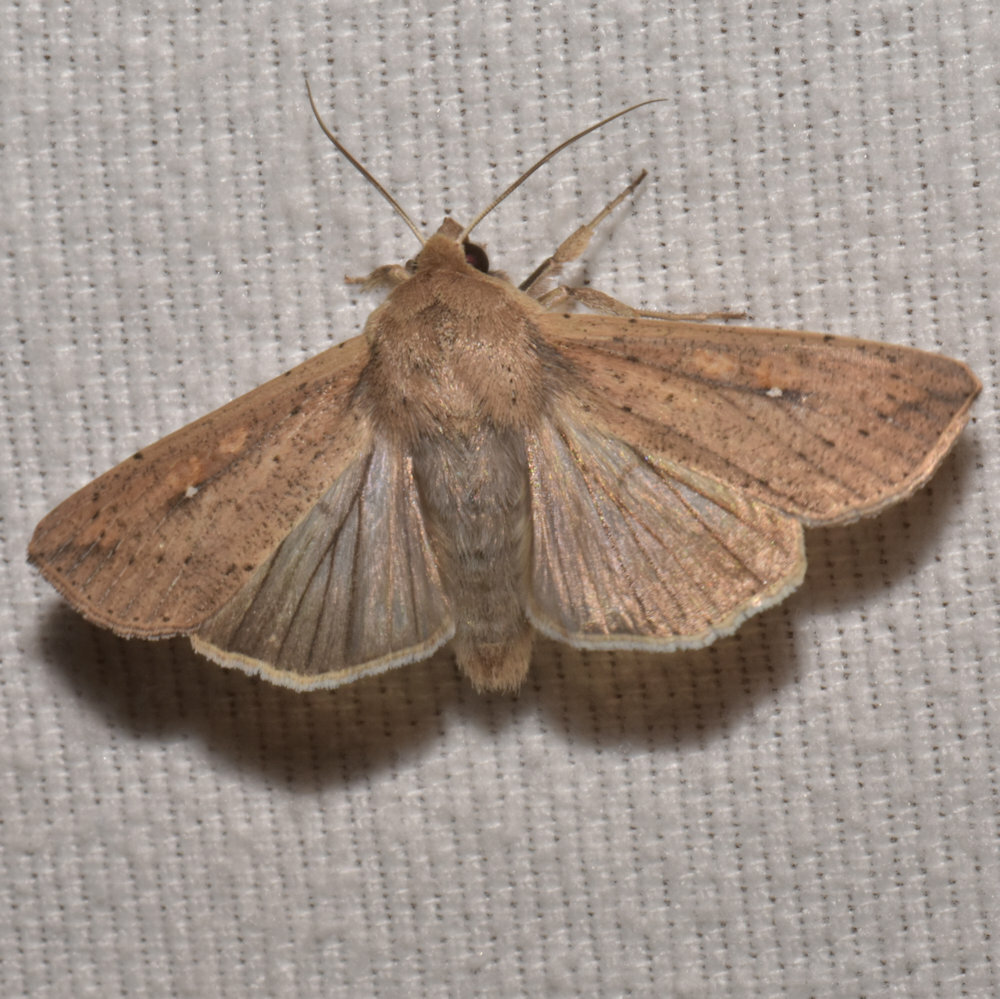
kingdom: Animalia
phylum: Arthropoda
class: Insecta
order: Lepidoptera
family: Noctuidae
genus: Mythimna
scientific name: Mythimna unipuncta
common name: White-speck
